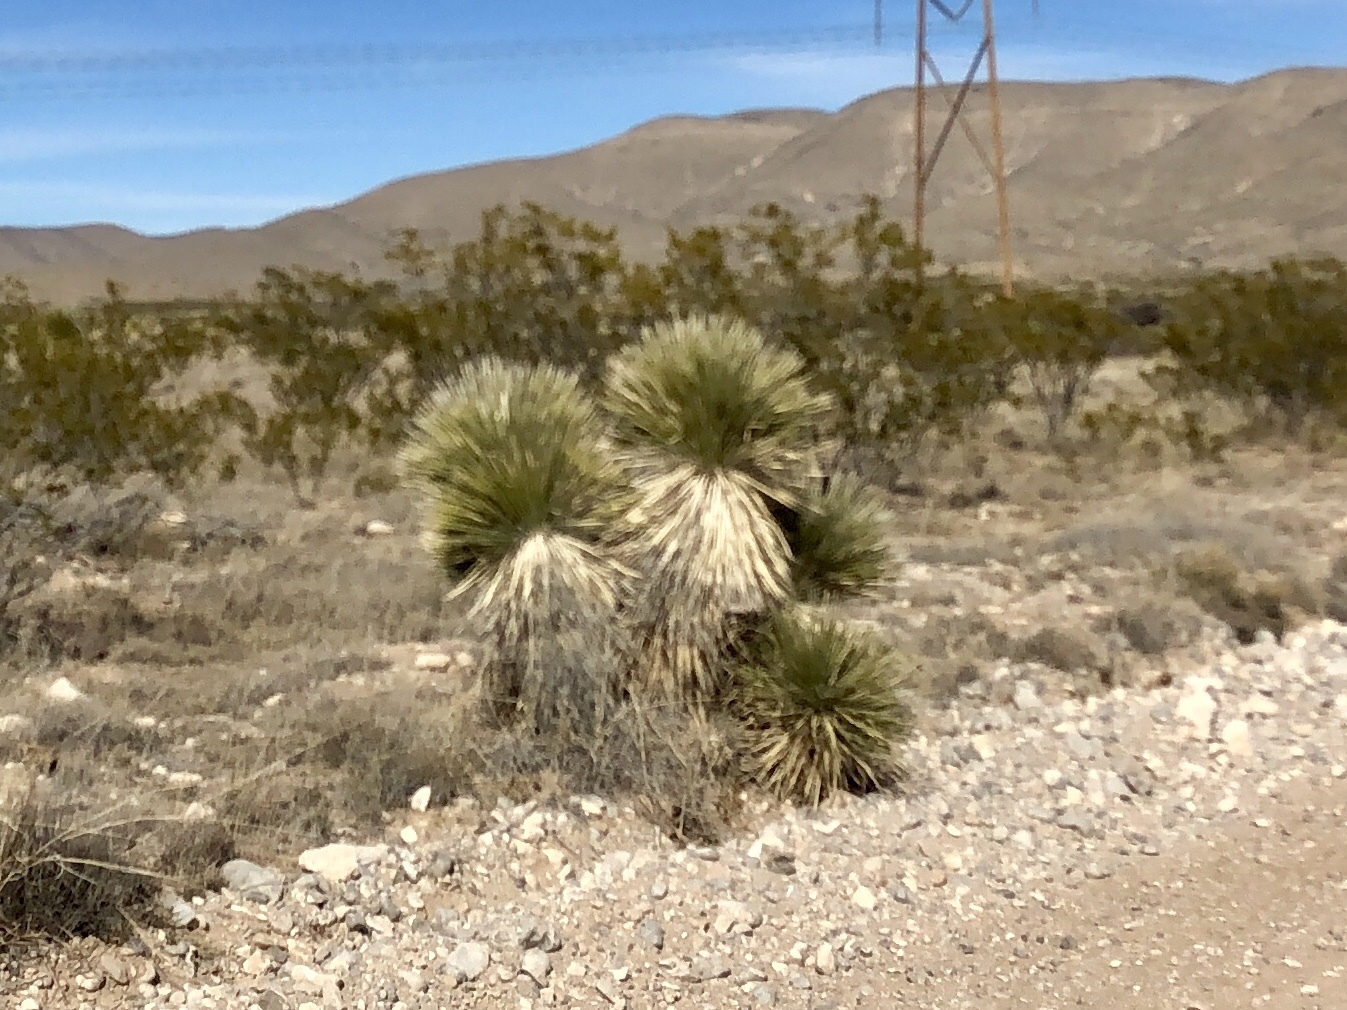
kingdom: Plantae
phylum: Tracheophyta
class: Liliopsida
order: Asparagales
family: Asparagaceae
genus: Yucca
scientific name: Yucca elata
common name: Palmella
